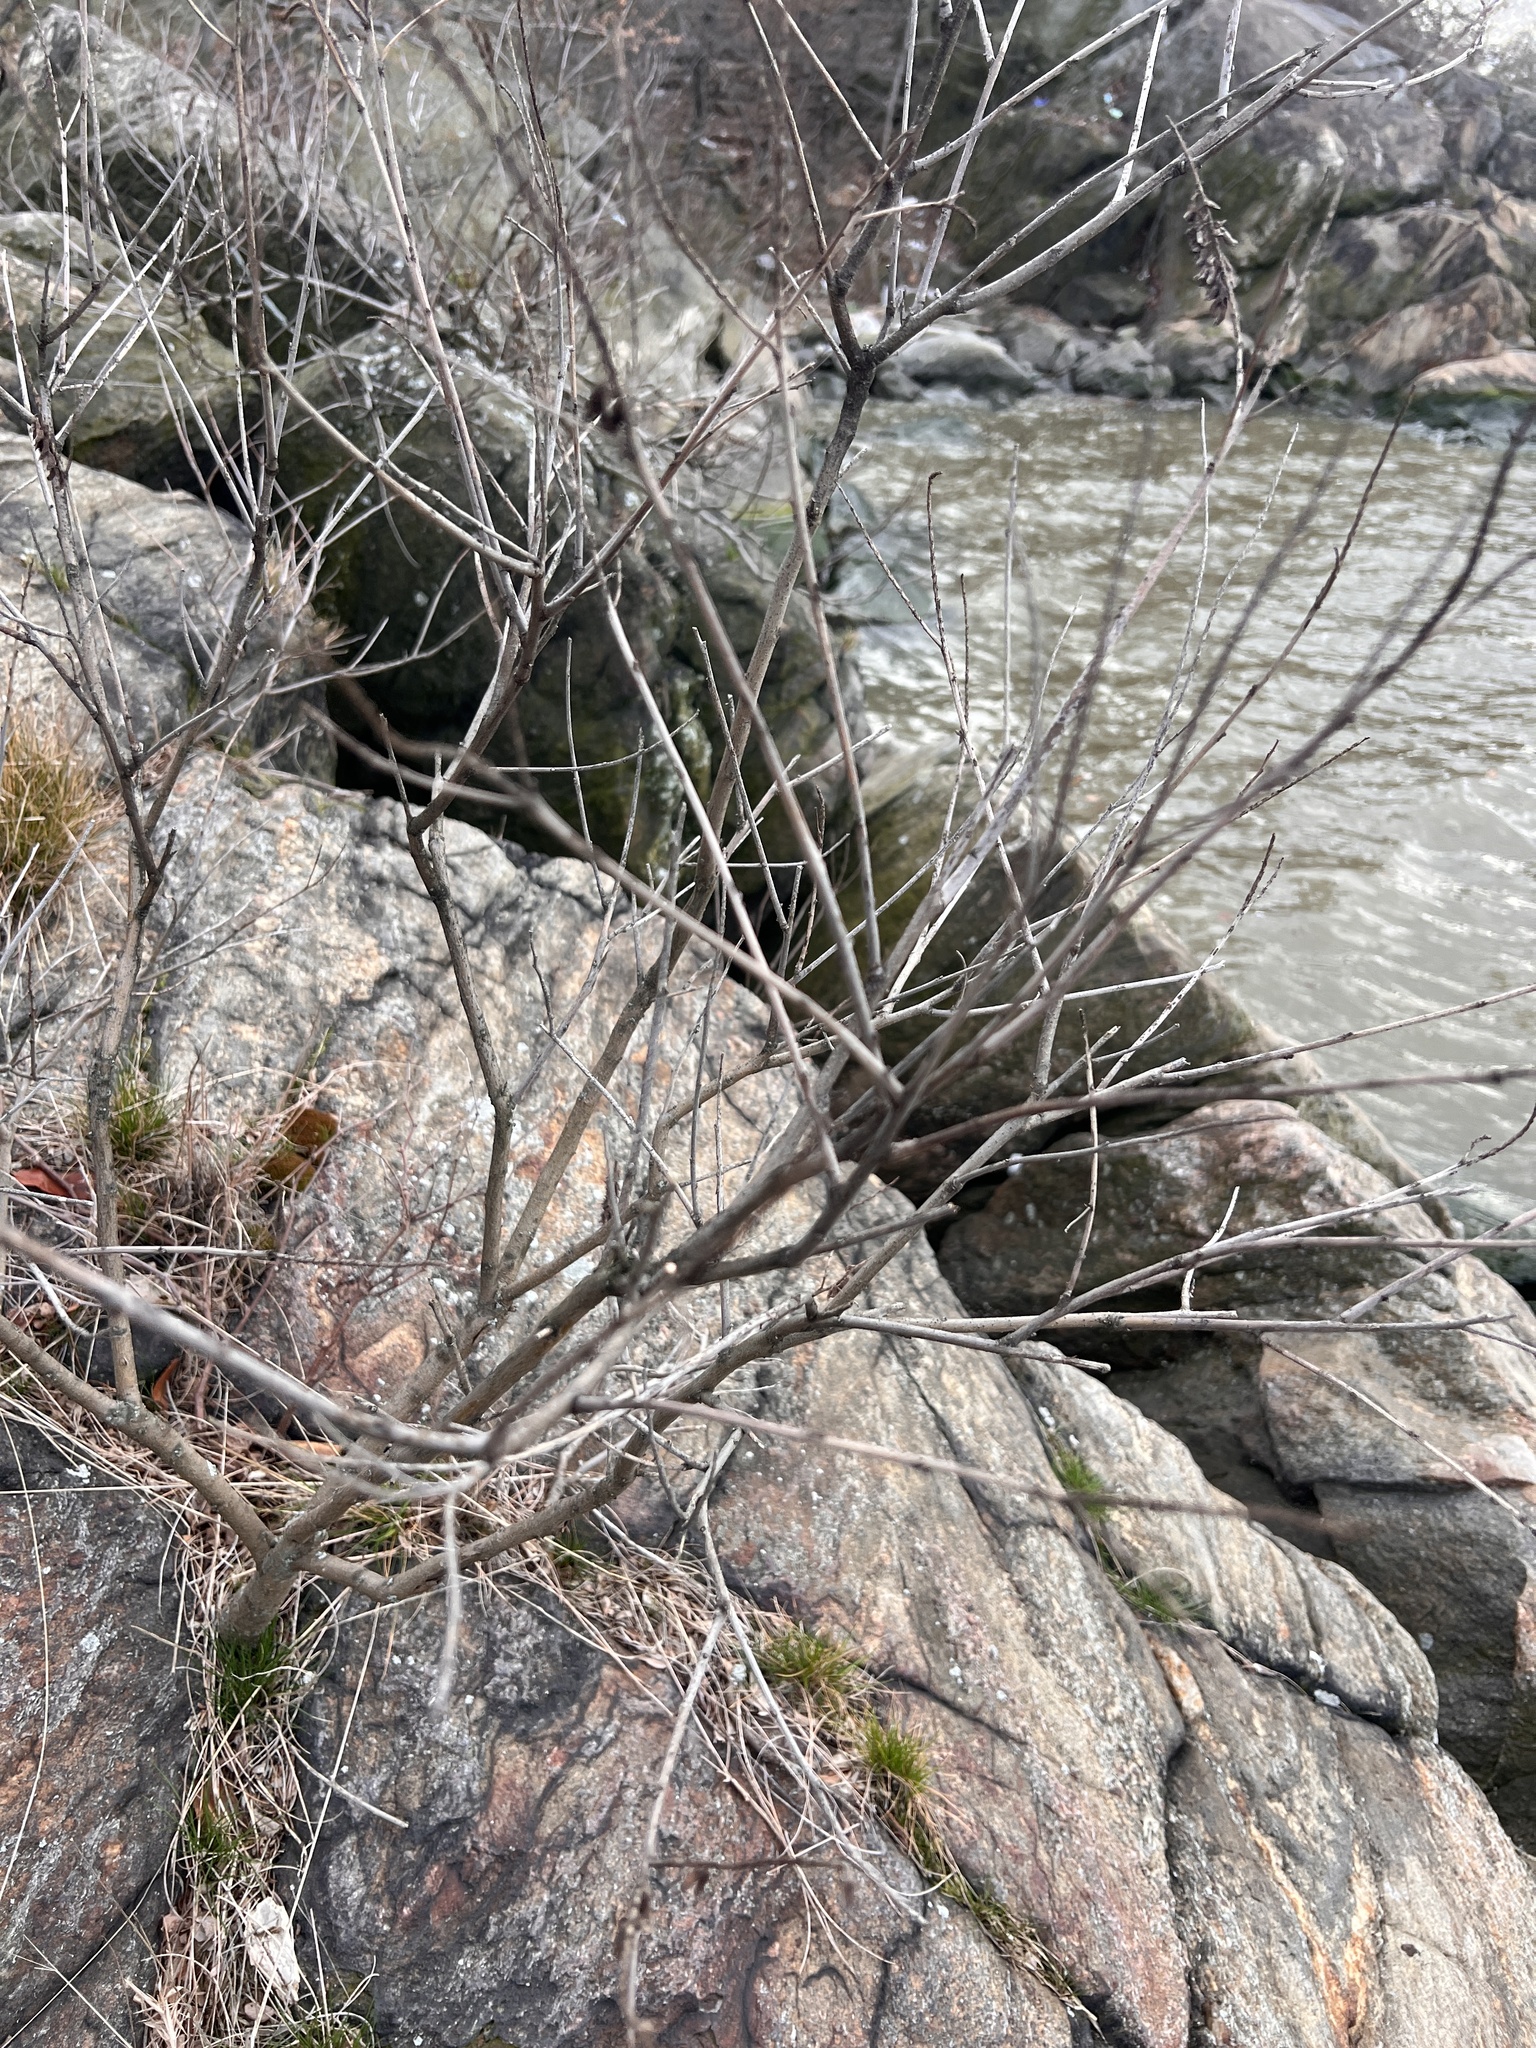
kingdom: Plantae
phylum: Tracheophyta
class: Magnoliopsida
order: Fabales
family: Fabaceae
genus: Amorpha
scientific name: Amorpha fruticosa
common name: False indigo
